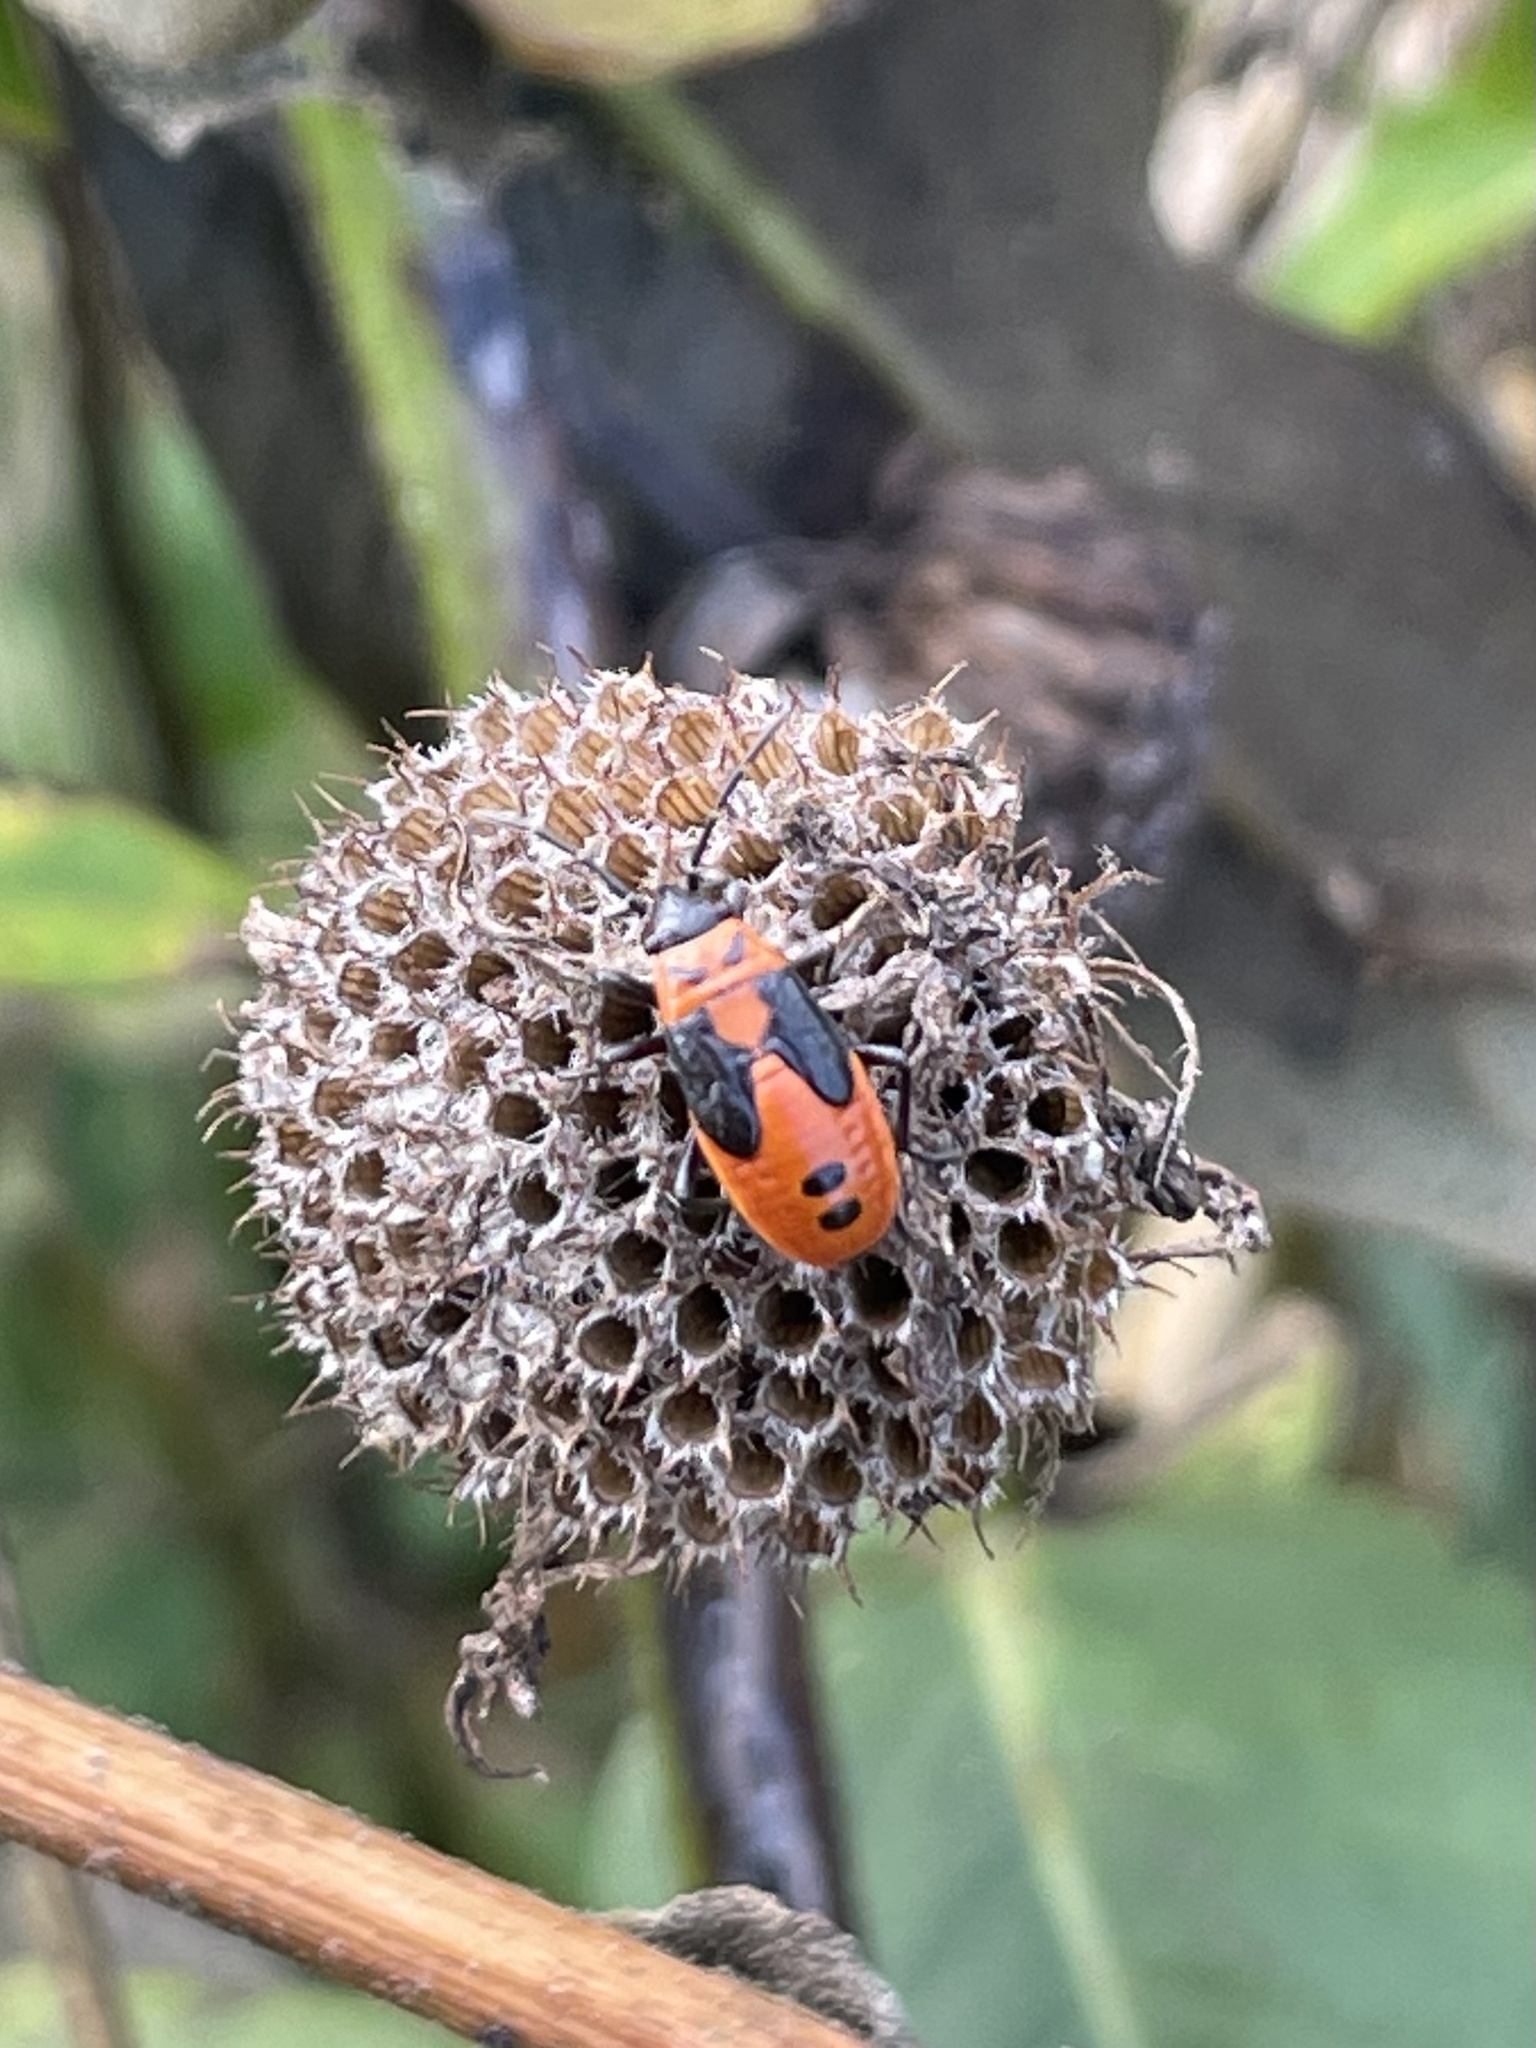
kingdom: Animalia
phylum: Arthropoda
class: Insecta
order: Hemiptera
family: Lygaeidae
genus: Lygaeus
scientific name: Lygaeus turcicus
